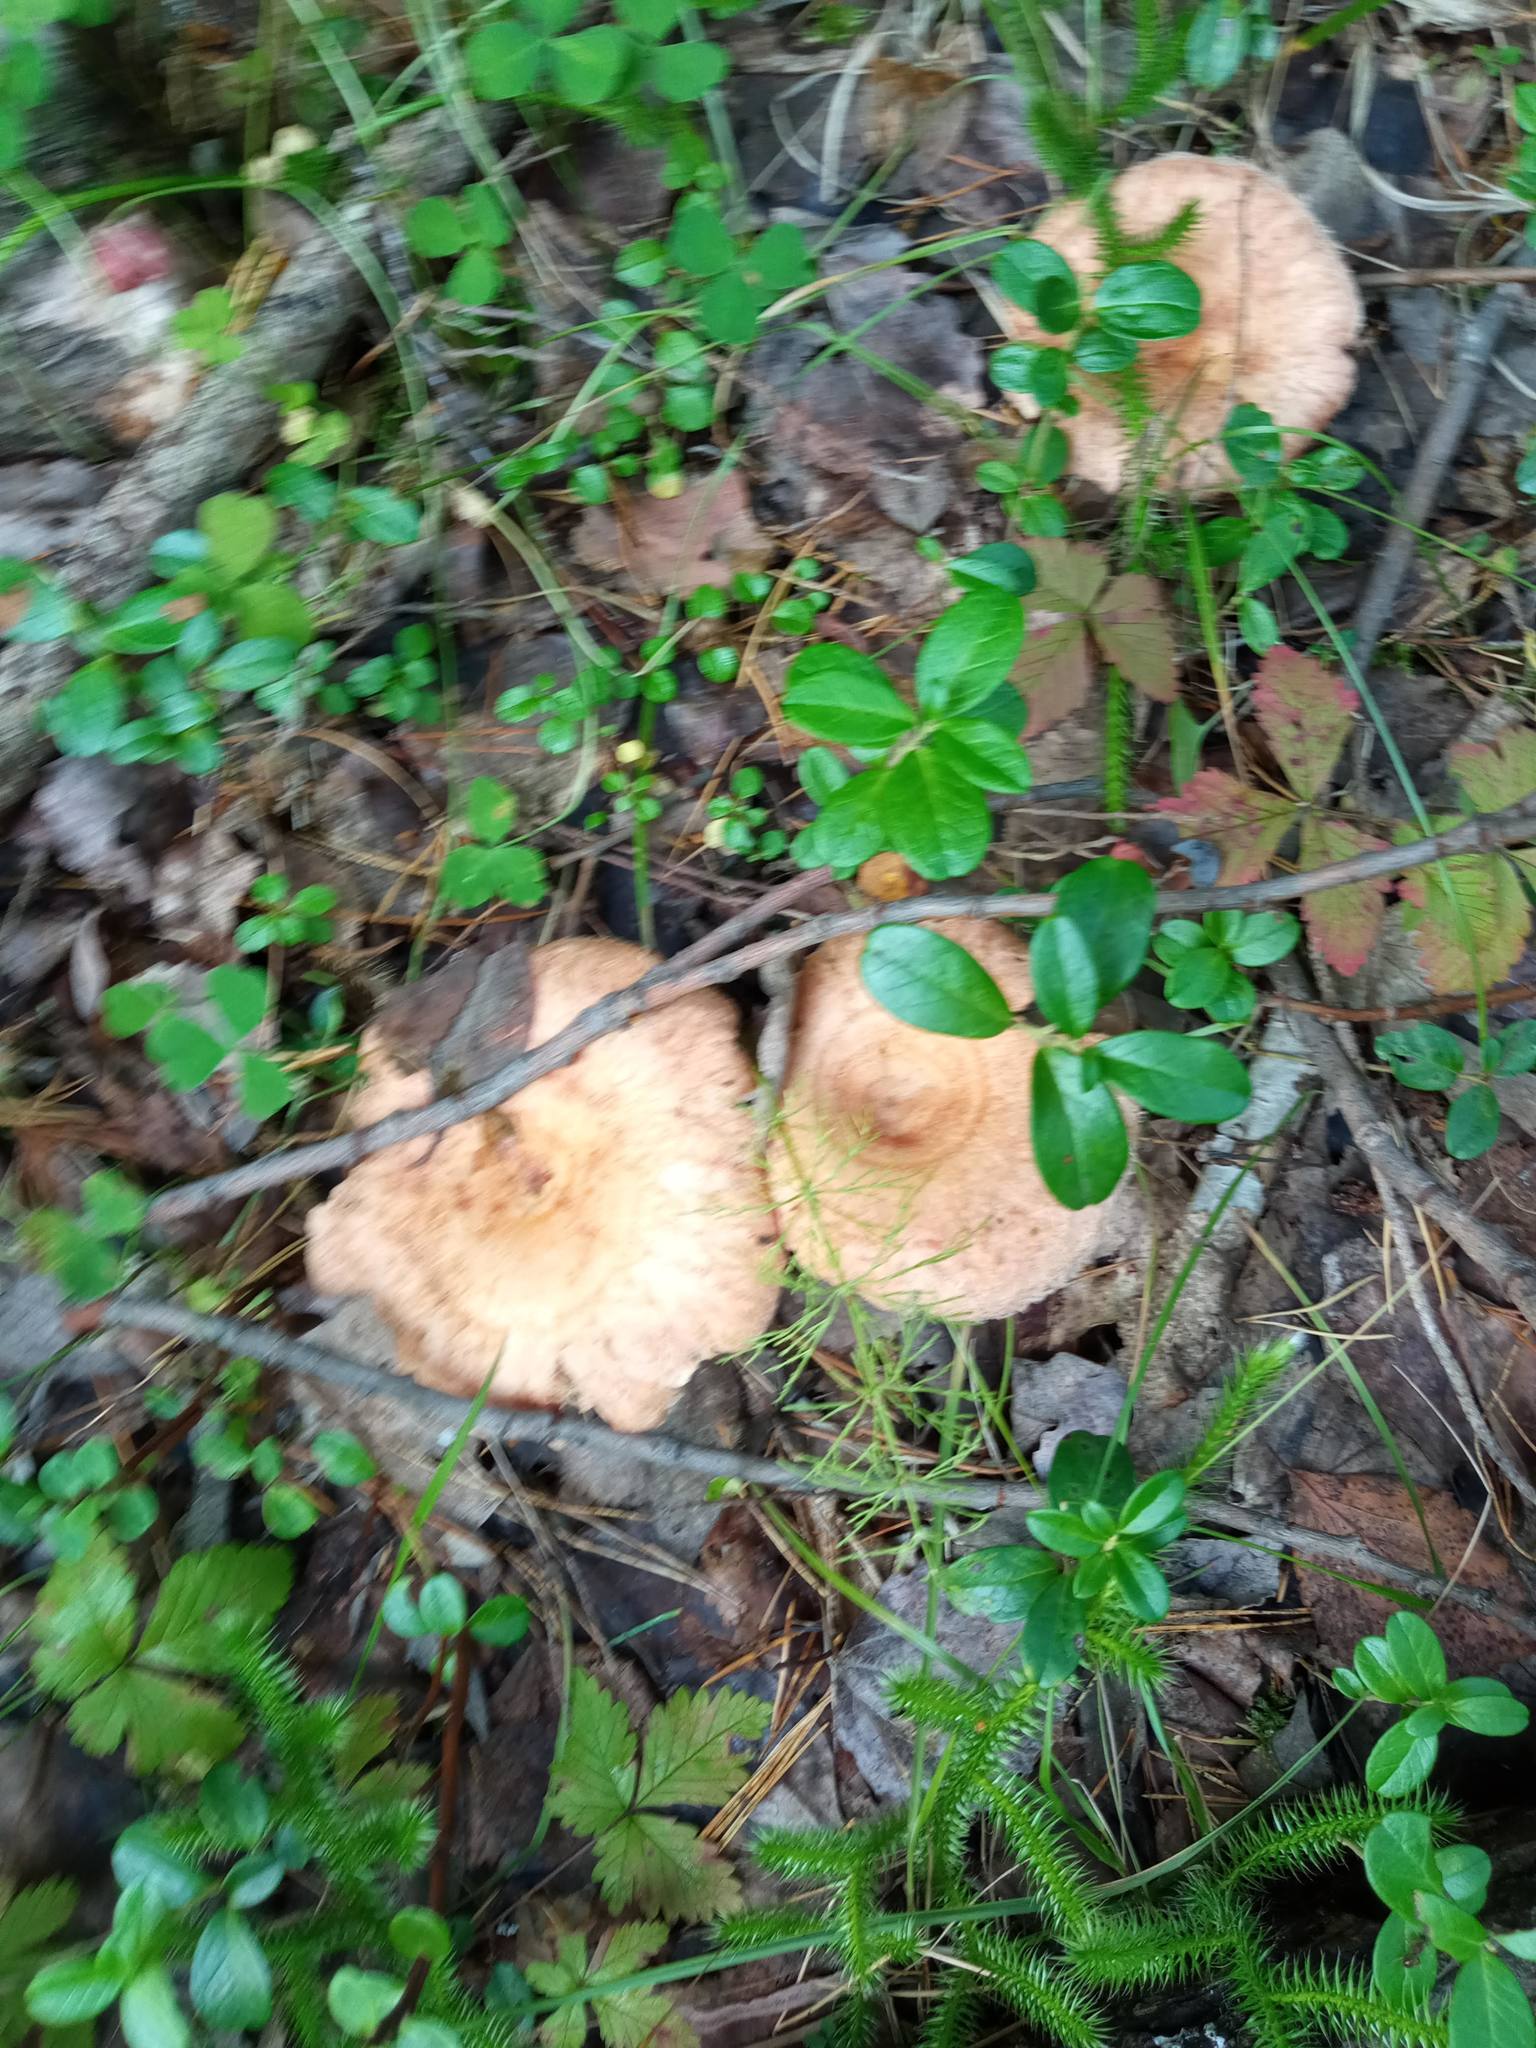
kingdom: Fungi
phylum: Basidiomycota
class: Agaricomycetes
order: Russulales
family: Russulaceae
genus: Lactarius
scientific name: Lactarius torminosus
